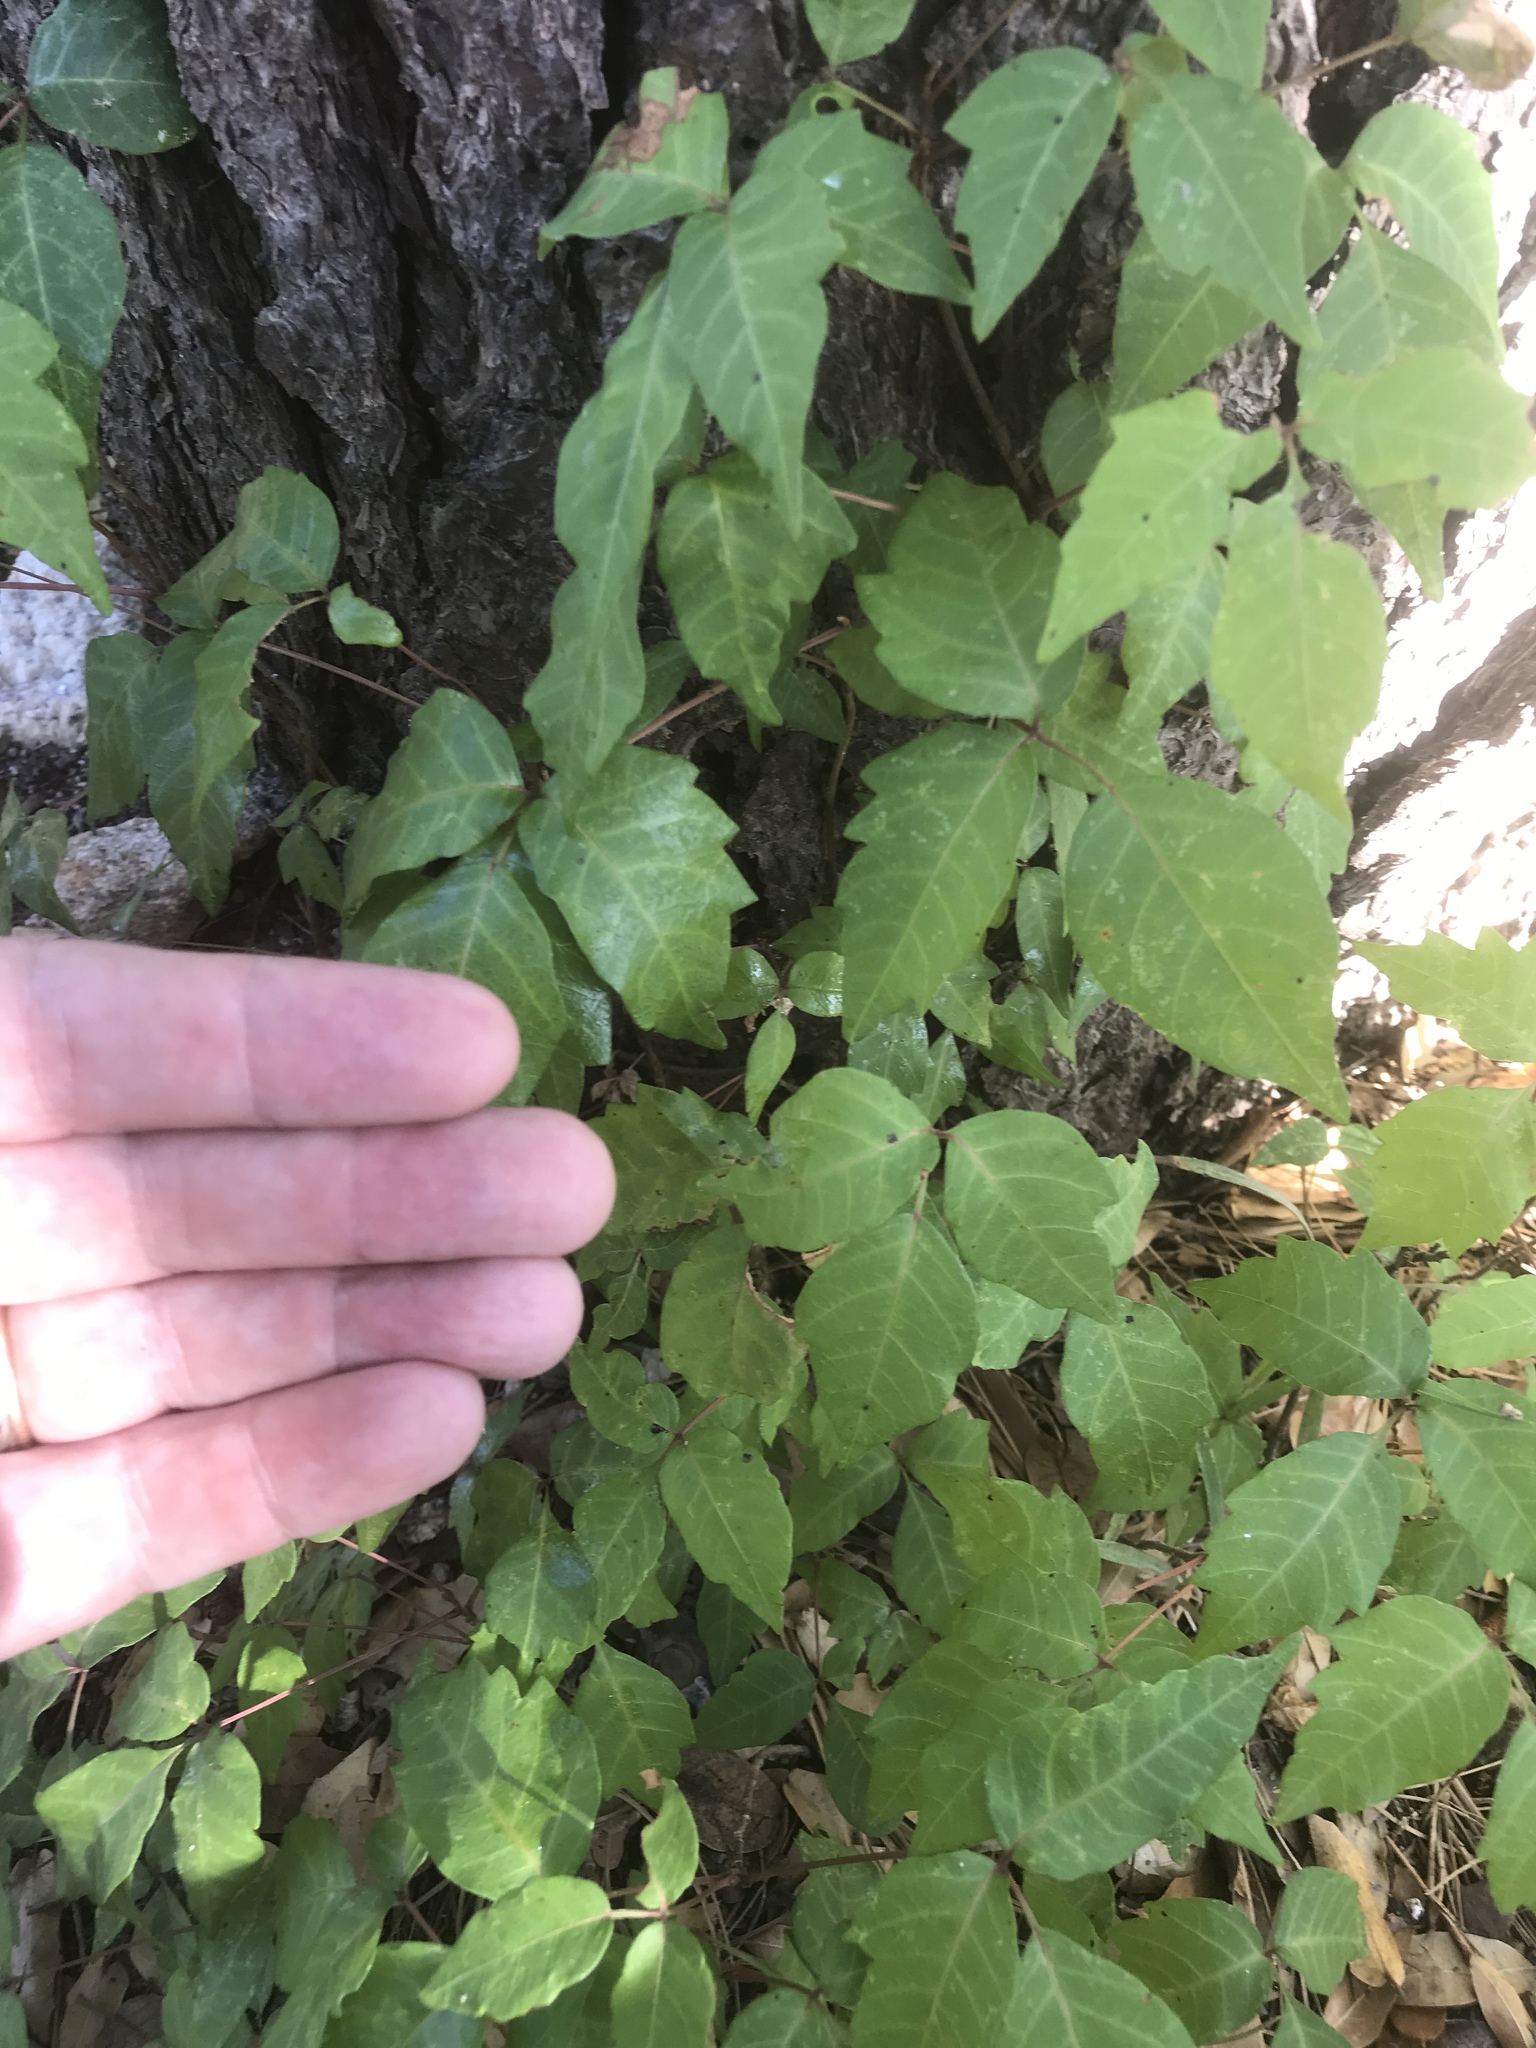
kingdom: Plantae
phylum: Tracheophyta
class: Magnoliopsida
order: Sapindales
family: Anacardiaceae
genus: Toxicodendron
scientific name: Toxicodendron radicans
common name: Poison ivy
